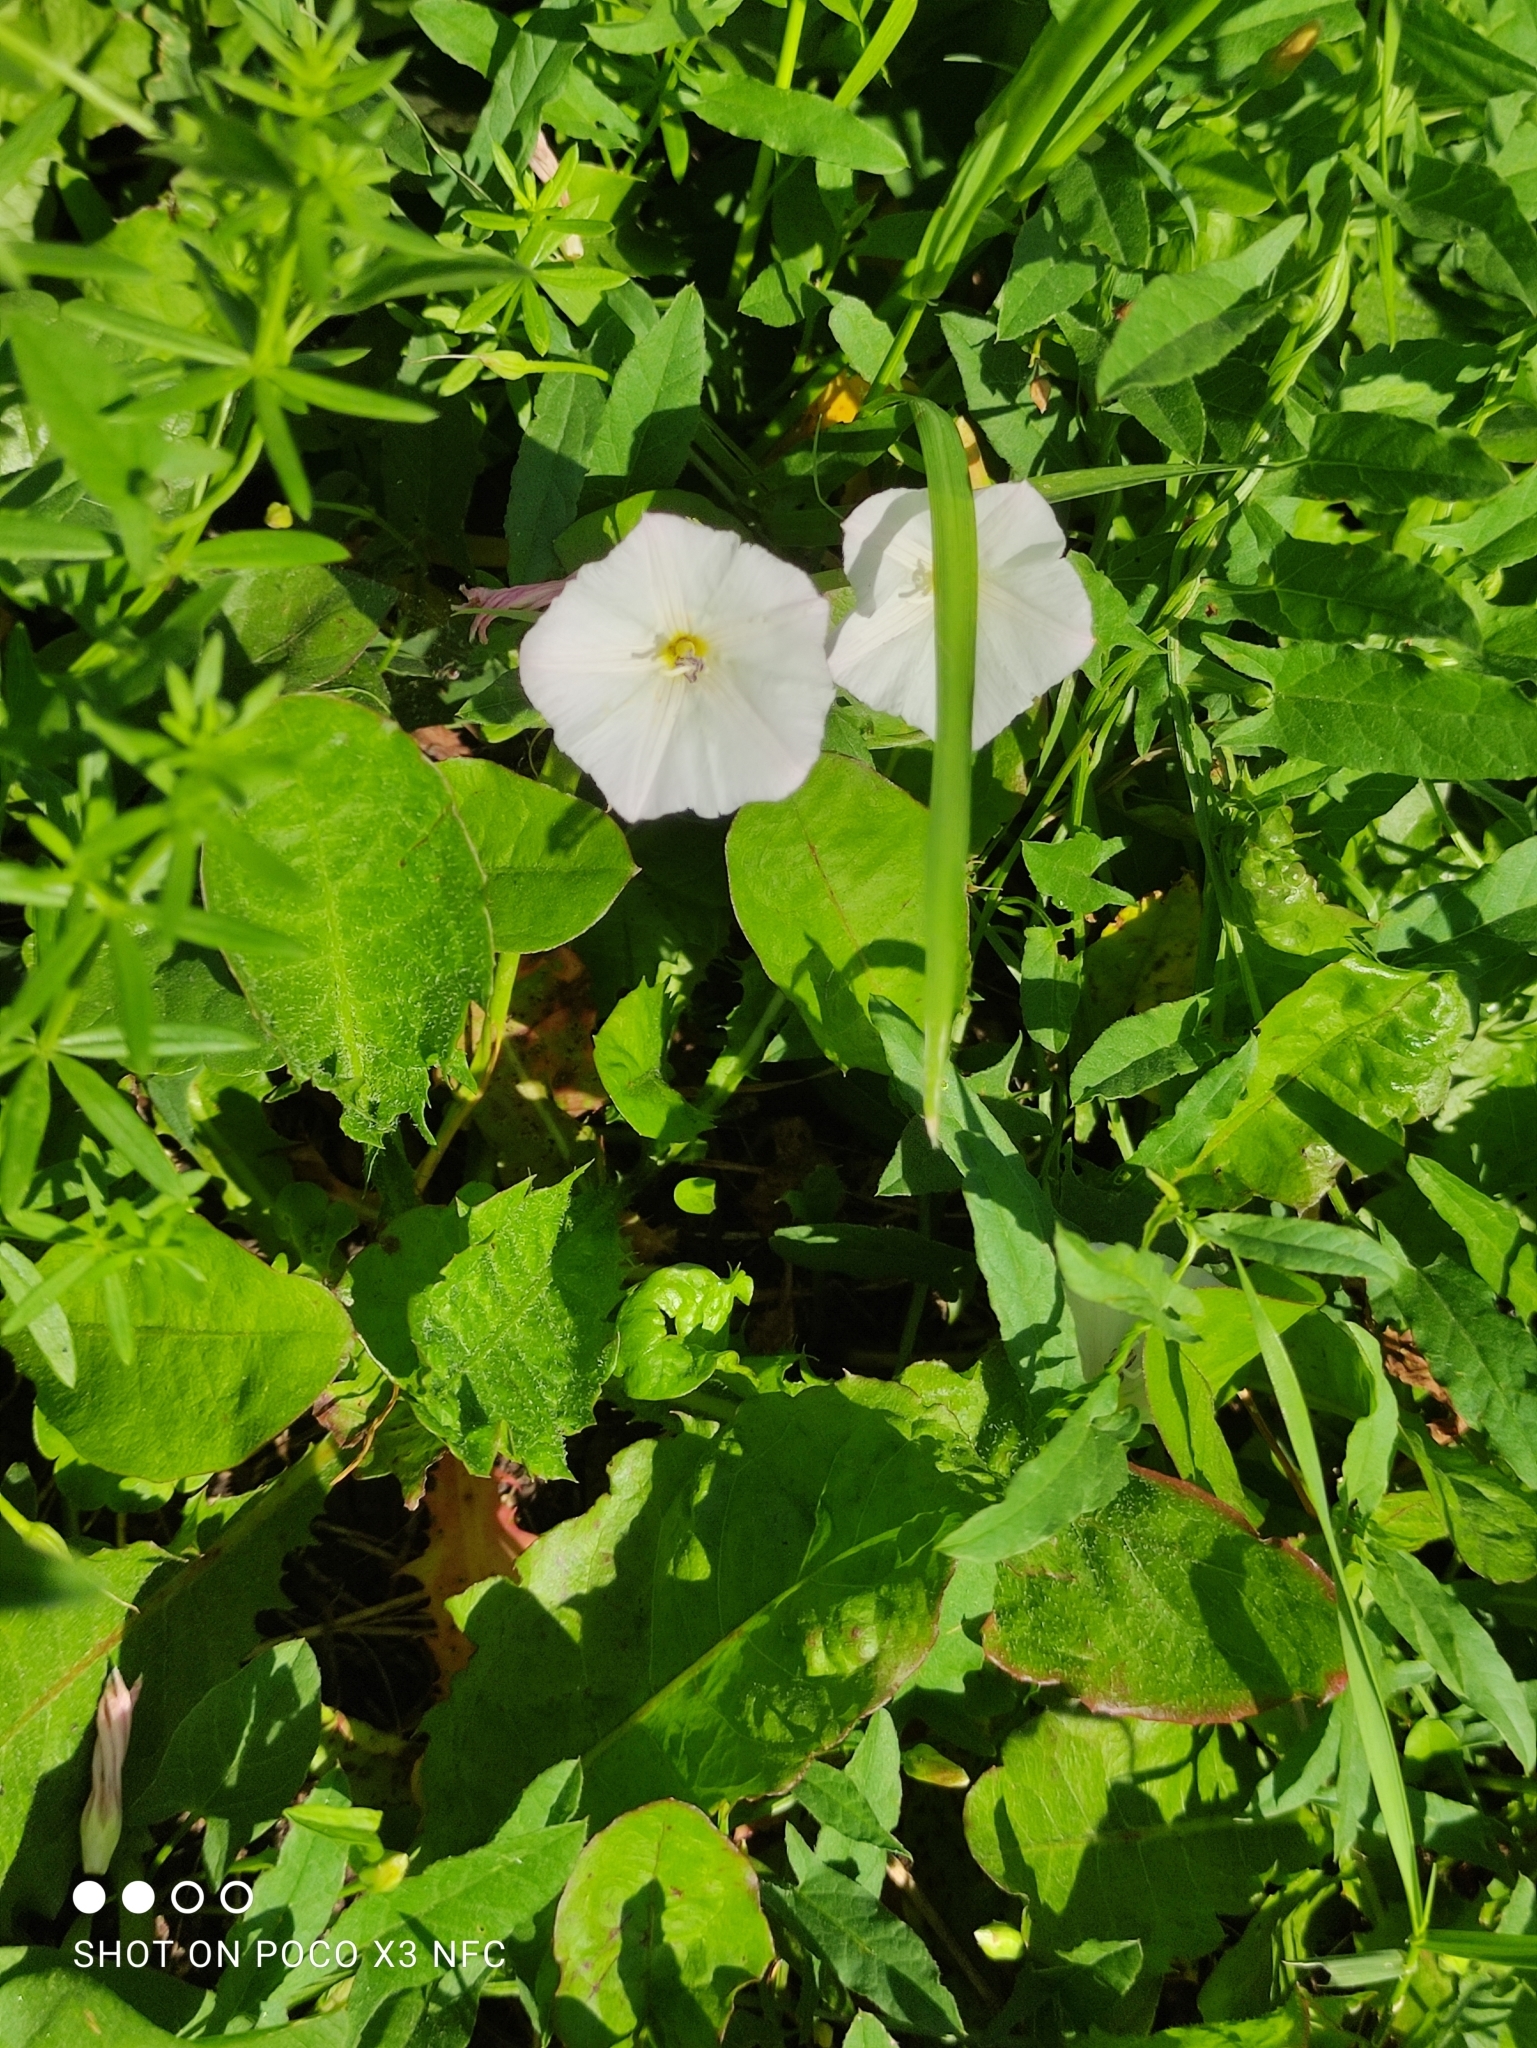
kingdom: Plantae
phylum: Tracheophyta
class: Magnoliopsida
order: Solanales
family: Convolvulaceae
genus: Convolvulus
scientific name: Convolvulus arvensis
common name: Field bindweed
